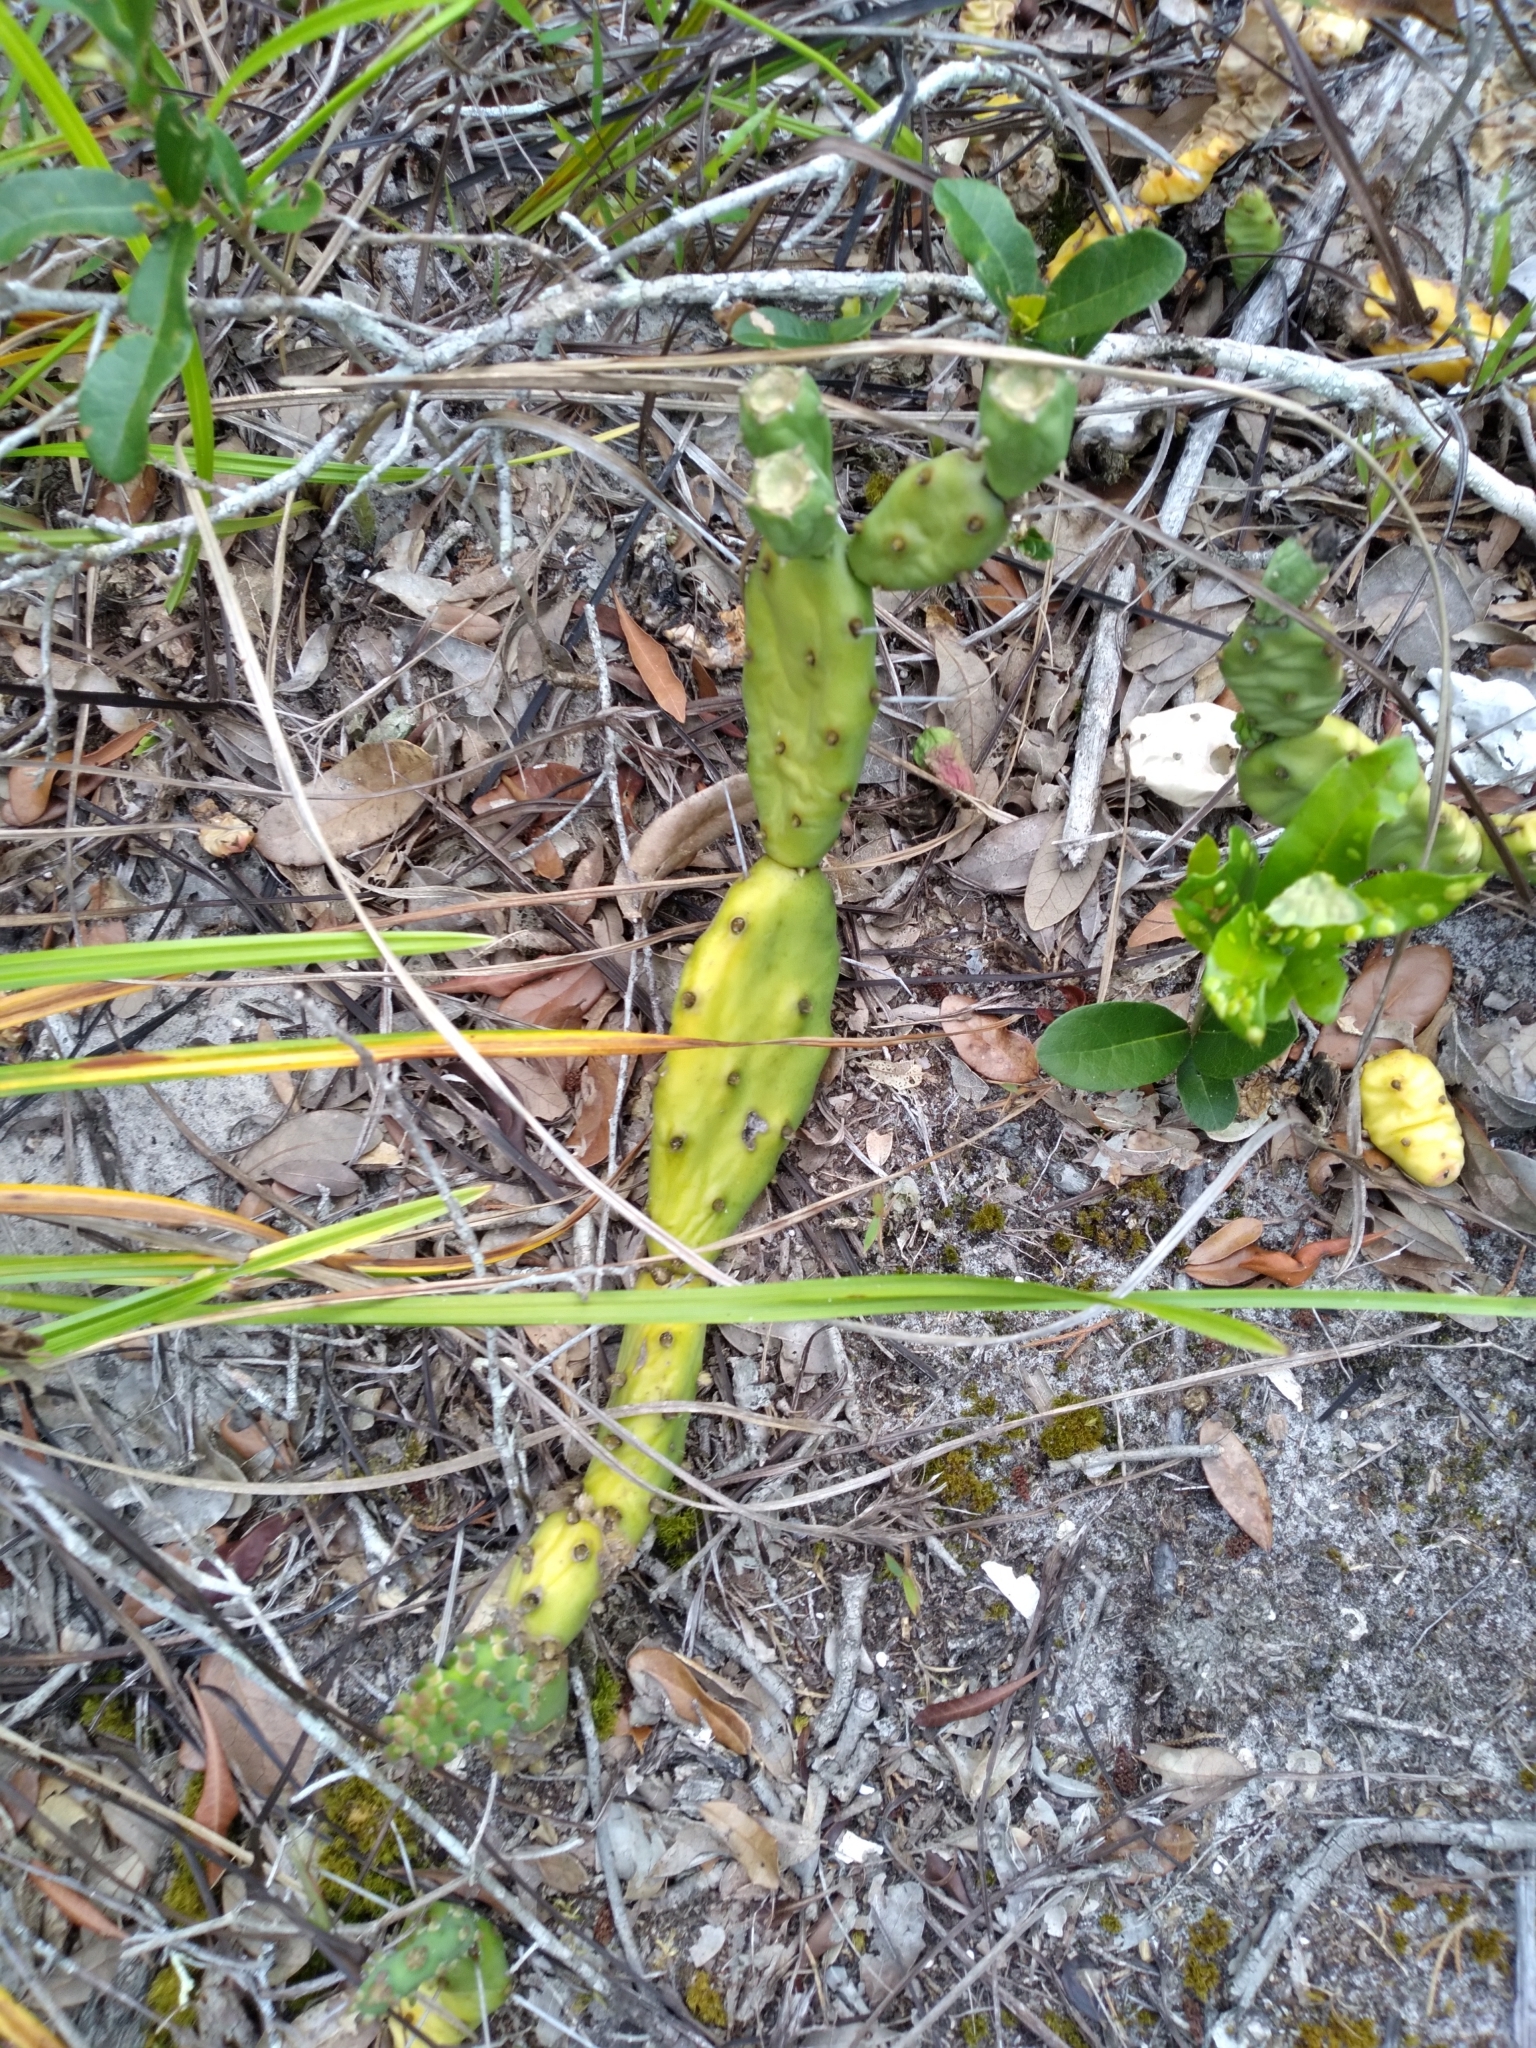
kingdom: Plantae
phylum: Tracheophyta
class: Magnoliopsida
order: Caryophyllales
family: Cactaceae
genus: Opuntia
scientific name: Opuntia drummondii
